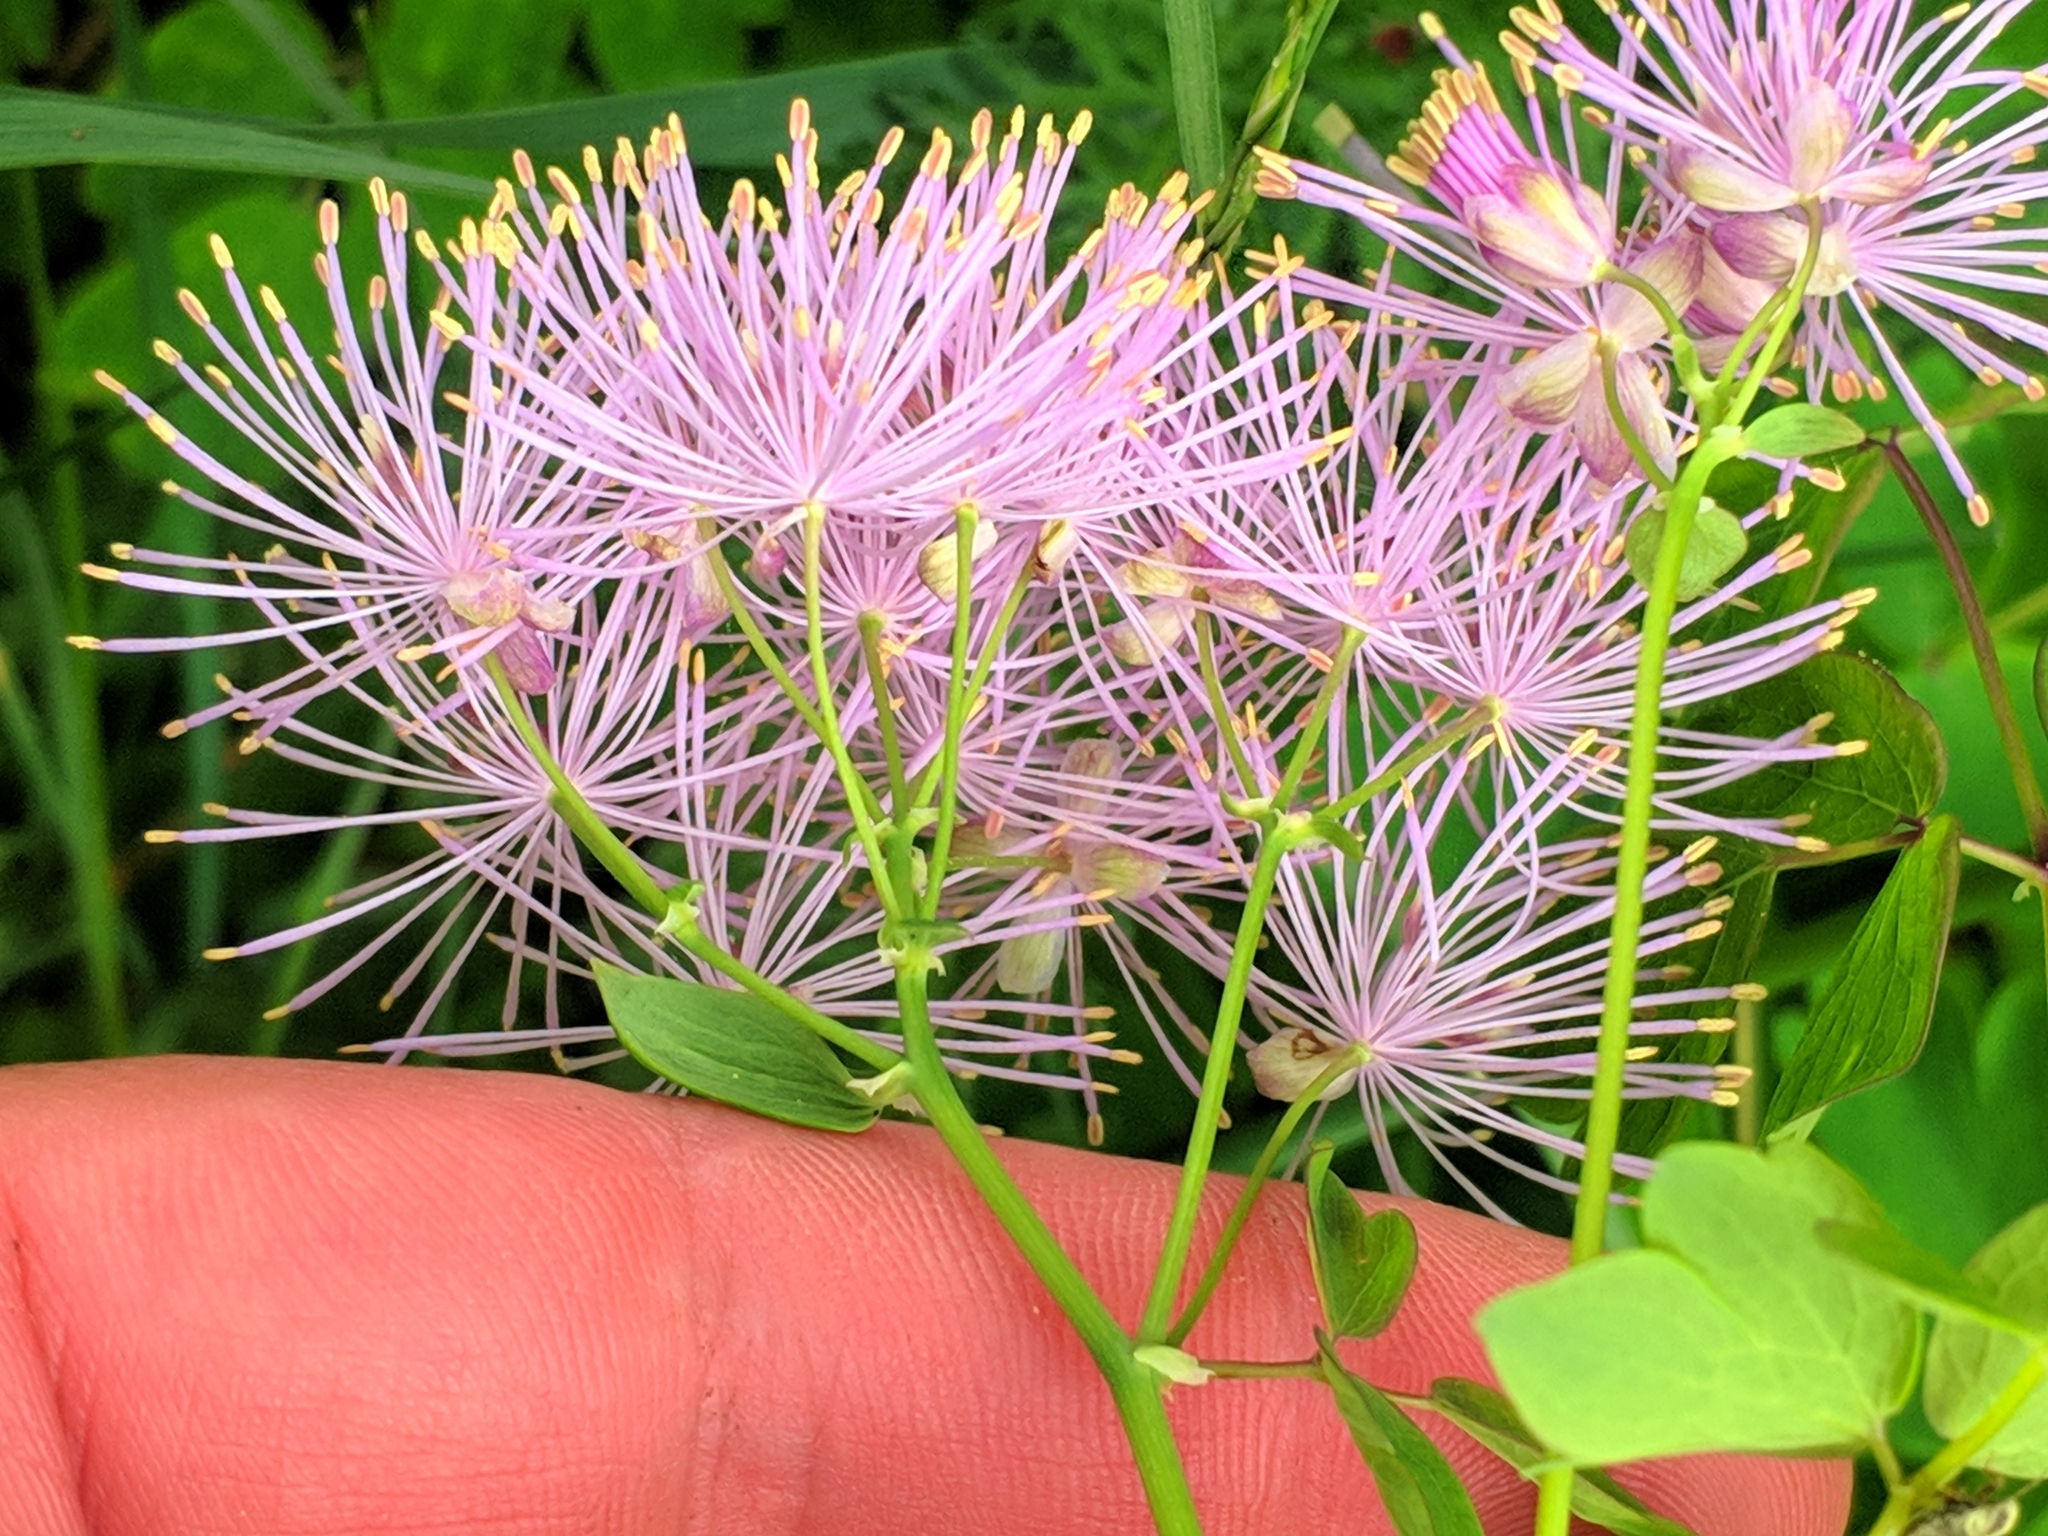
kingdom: Plantae
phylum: Tracheophyta
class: Magnoliopsida
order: Ranunculales
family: Ranunculaceae
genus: Thalictrum
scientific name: Thalictrum aquilegiifolium
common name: French meadow-rue
